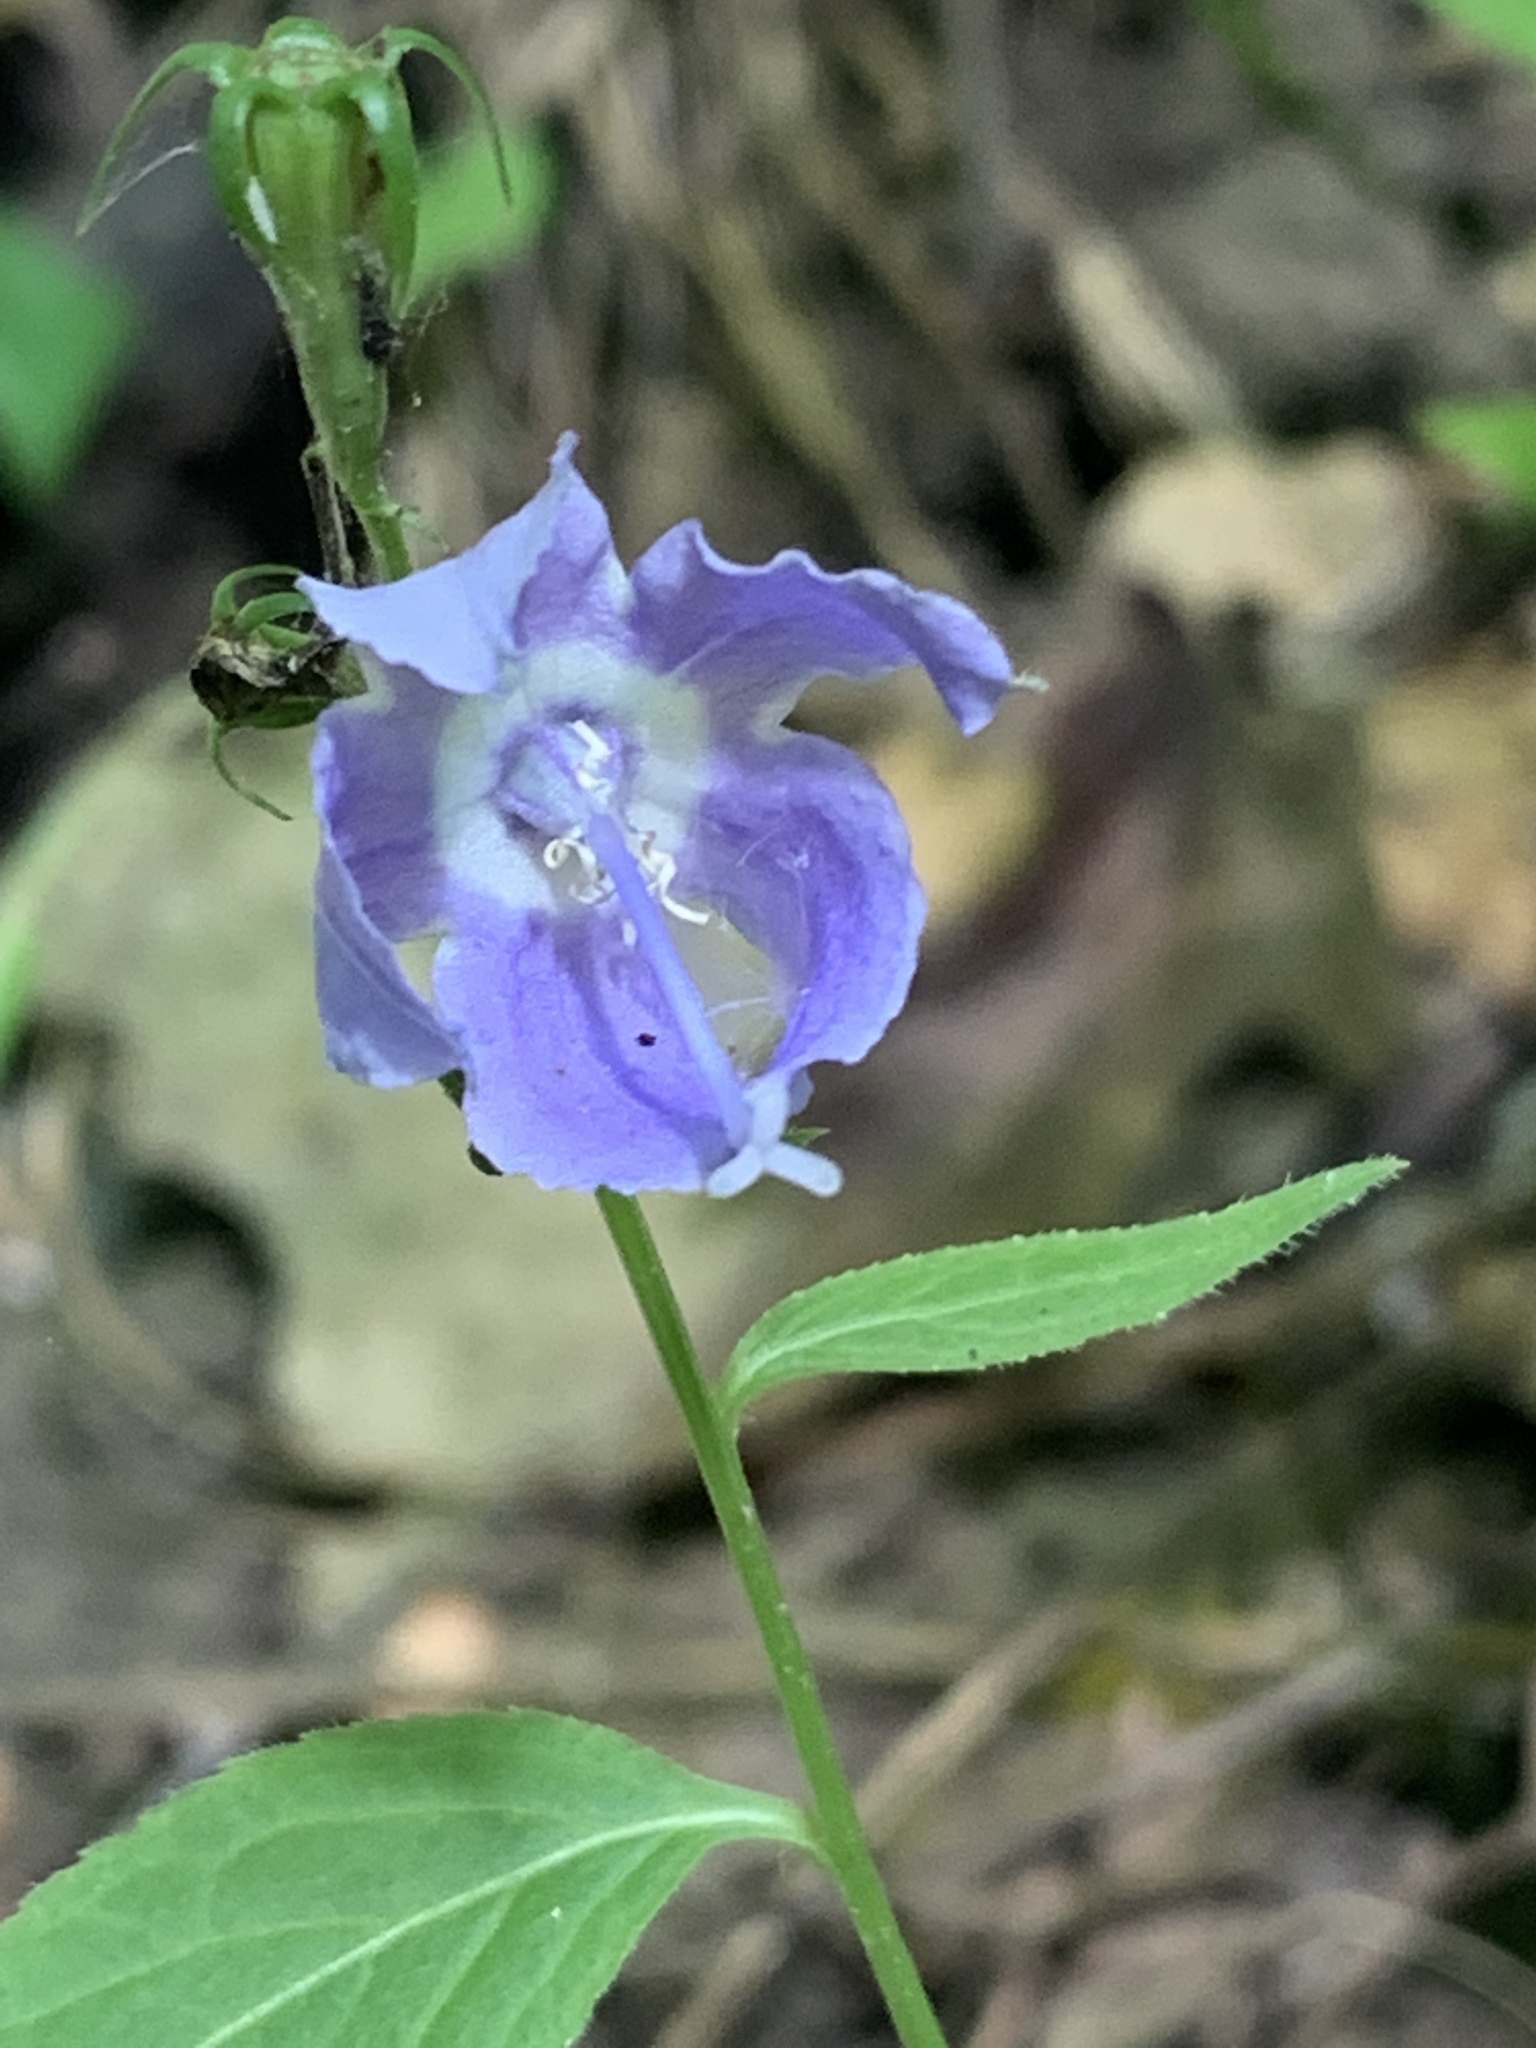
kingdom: Plantae
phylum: Tracheophyta
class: Magnoliopsida
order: Asterales
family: Campanulaceae
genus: Campanulastrum
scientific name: Campanulastrum americanum
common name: American bellflower
